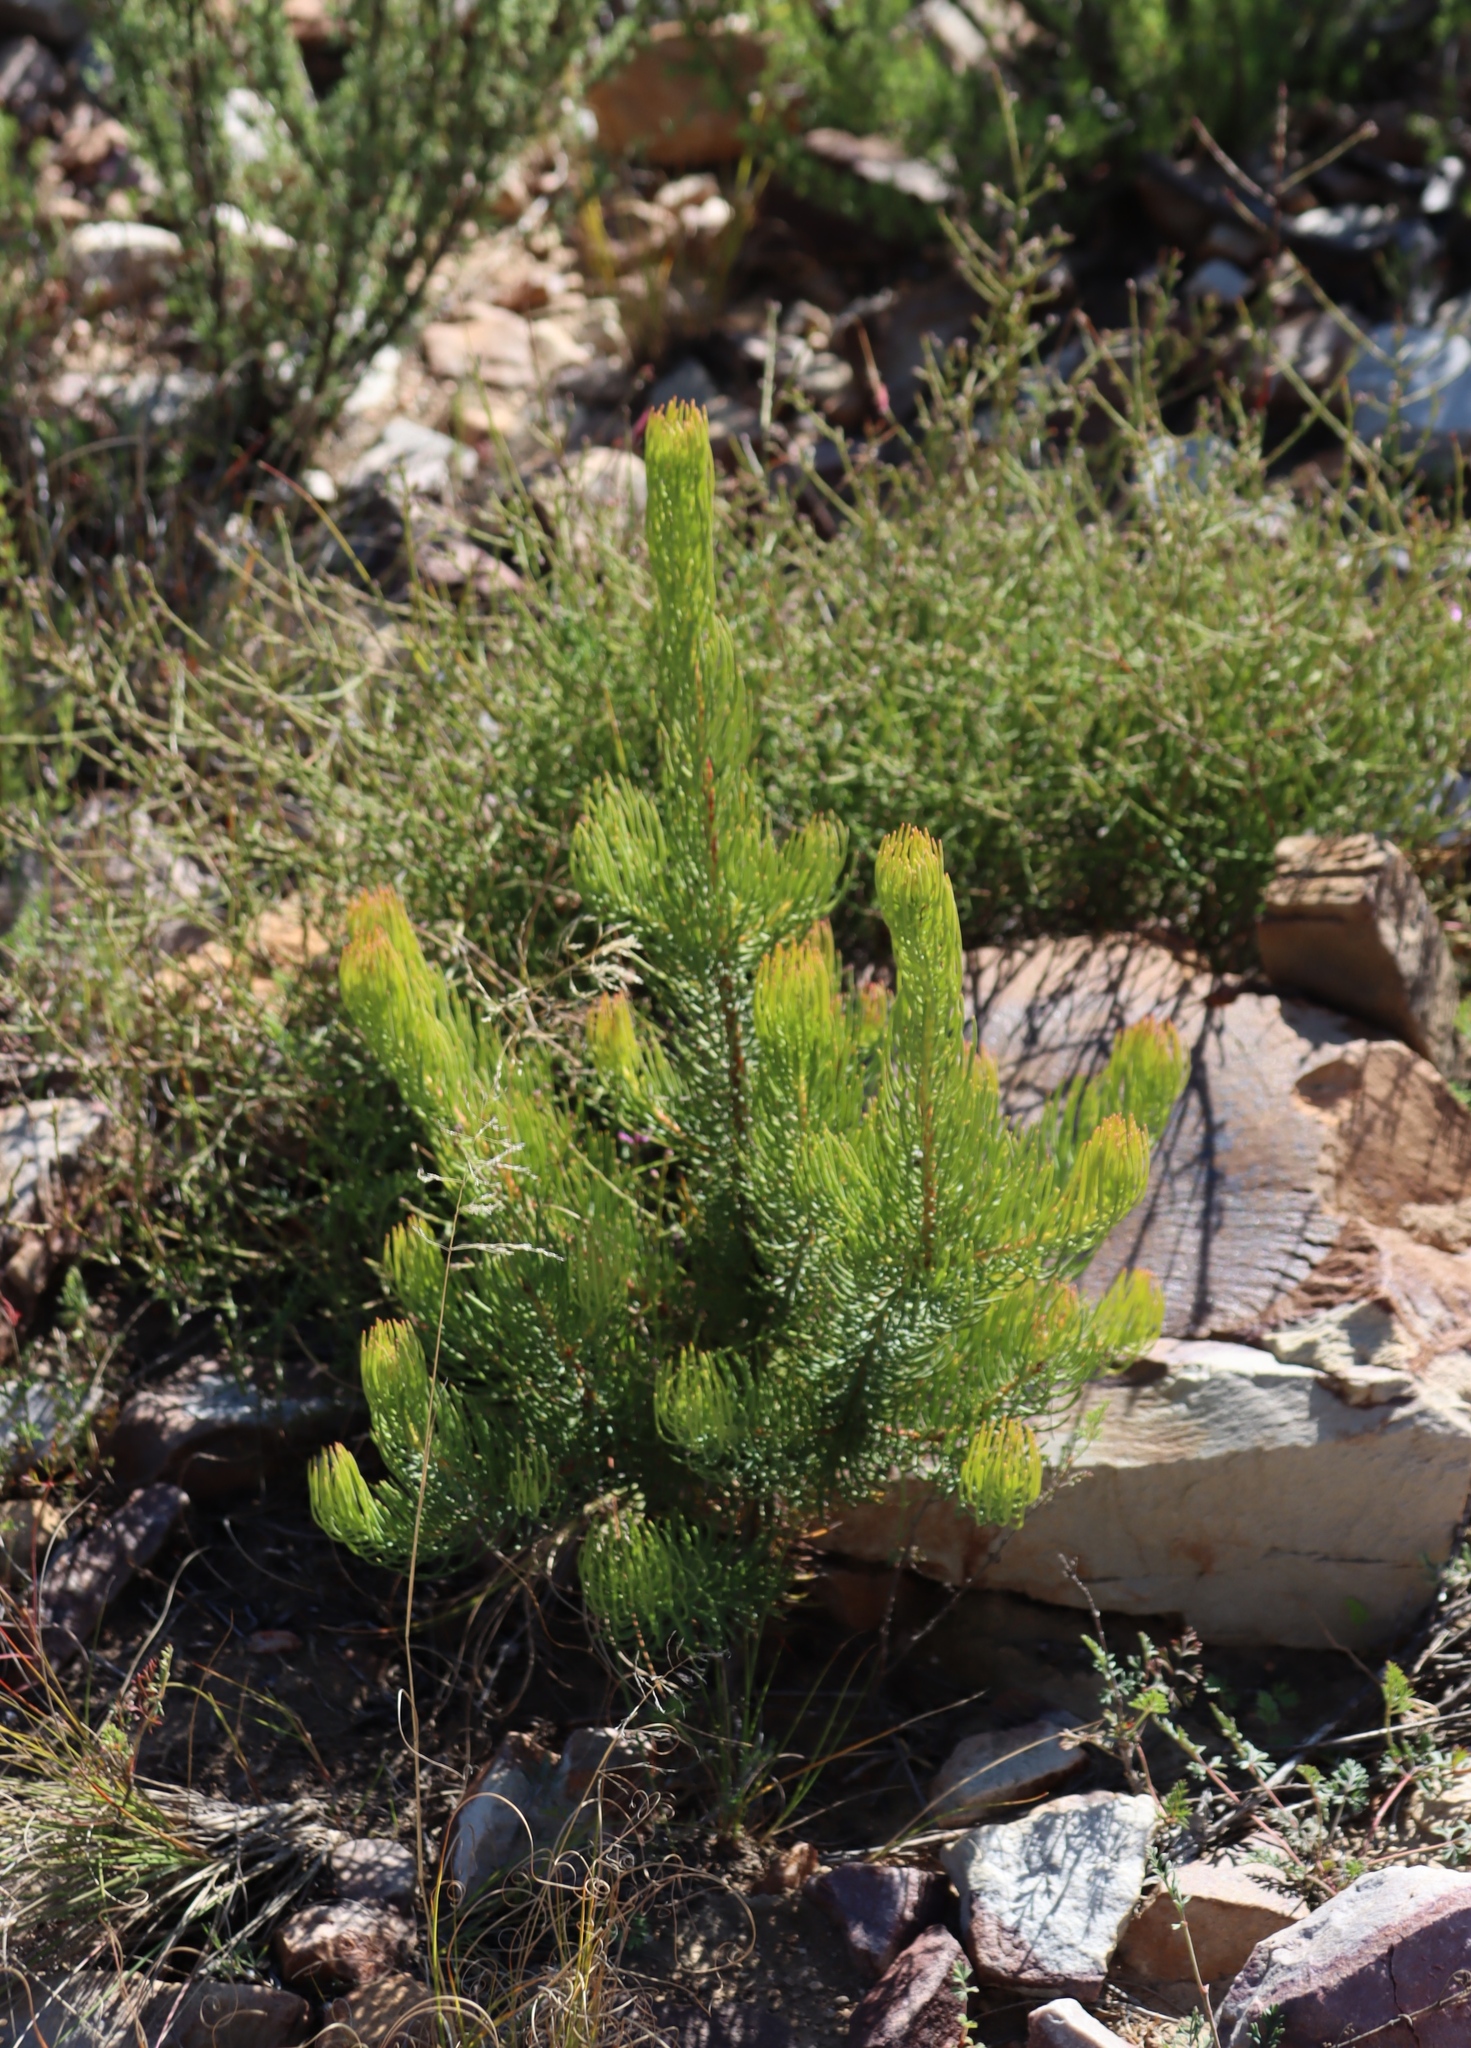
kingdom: Plantae
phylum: Tracheophyta
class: Magnoliopsida
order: Proteales
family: Proteaceae
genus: Leucadendron
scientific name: Leucadendron nobile
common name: Karoo conebush
